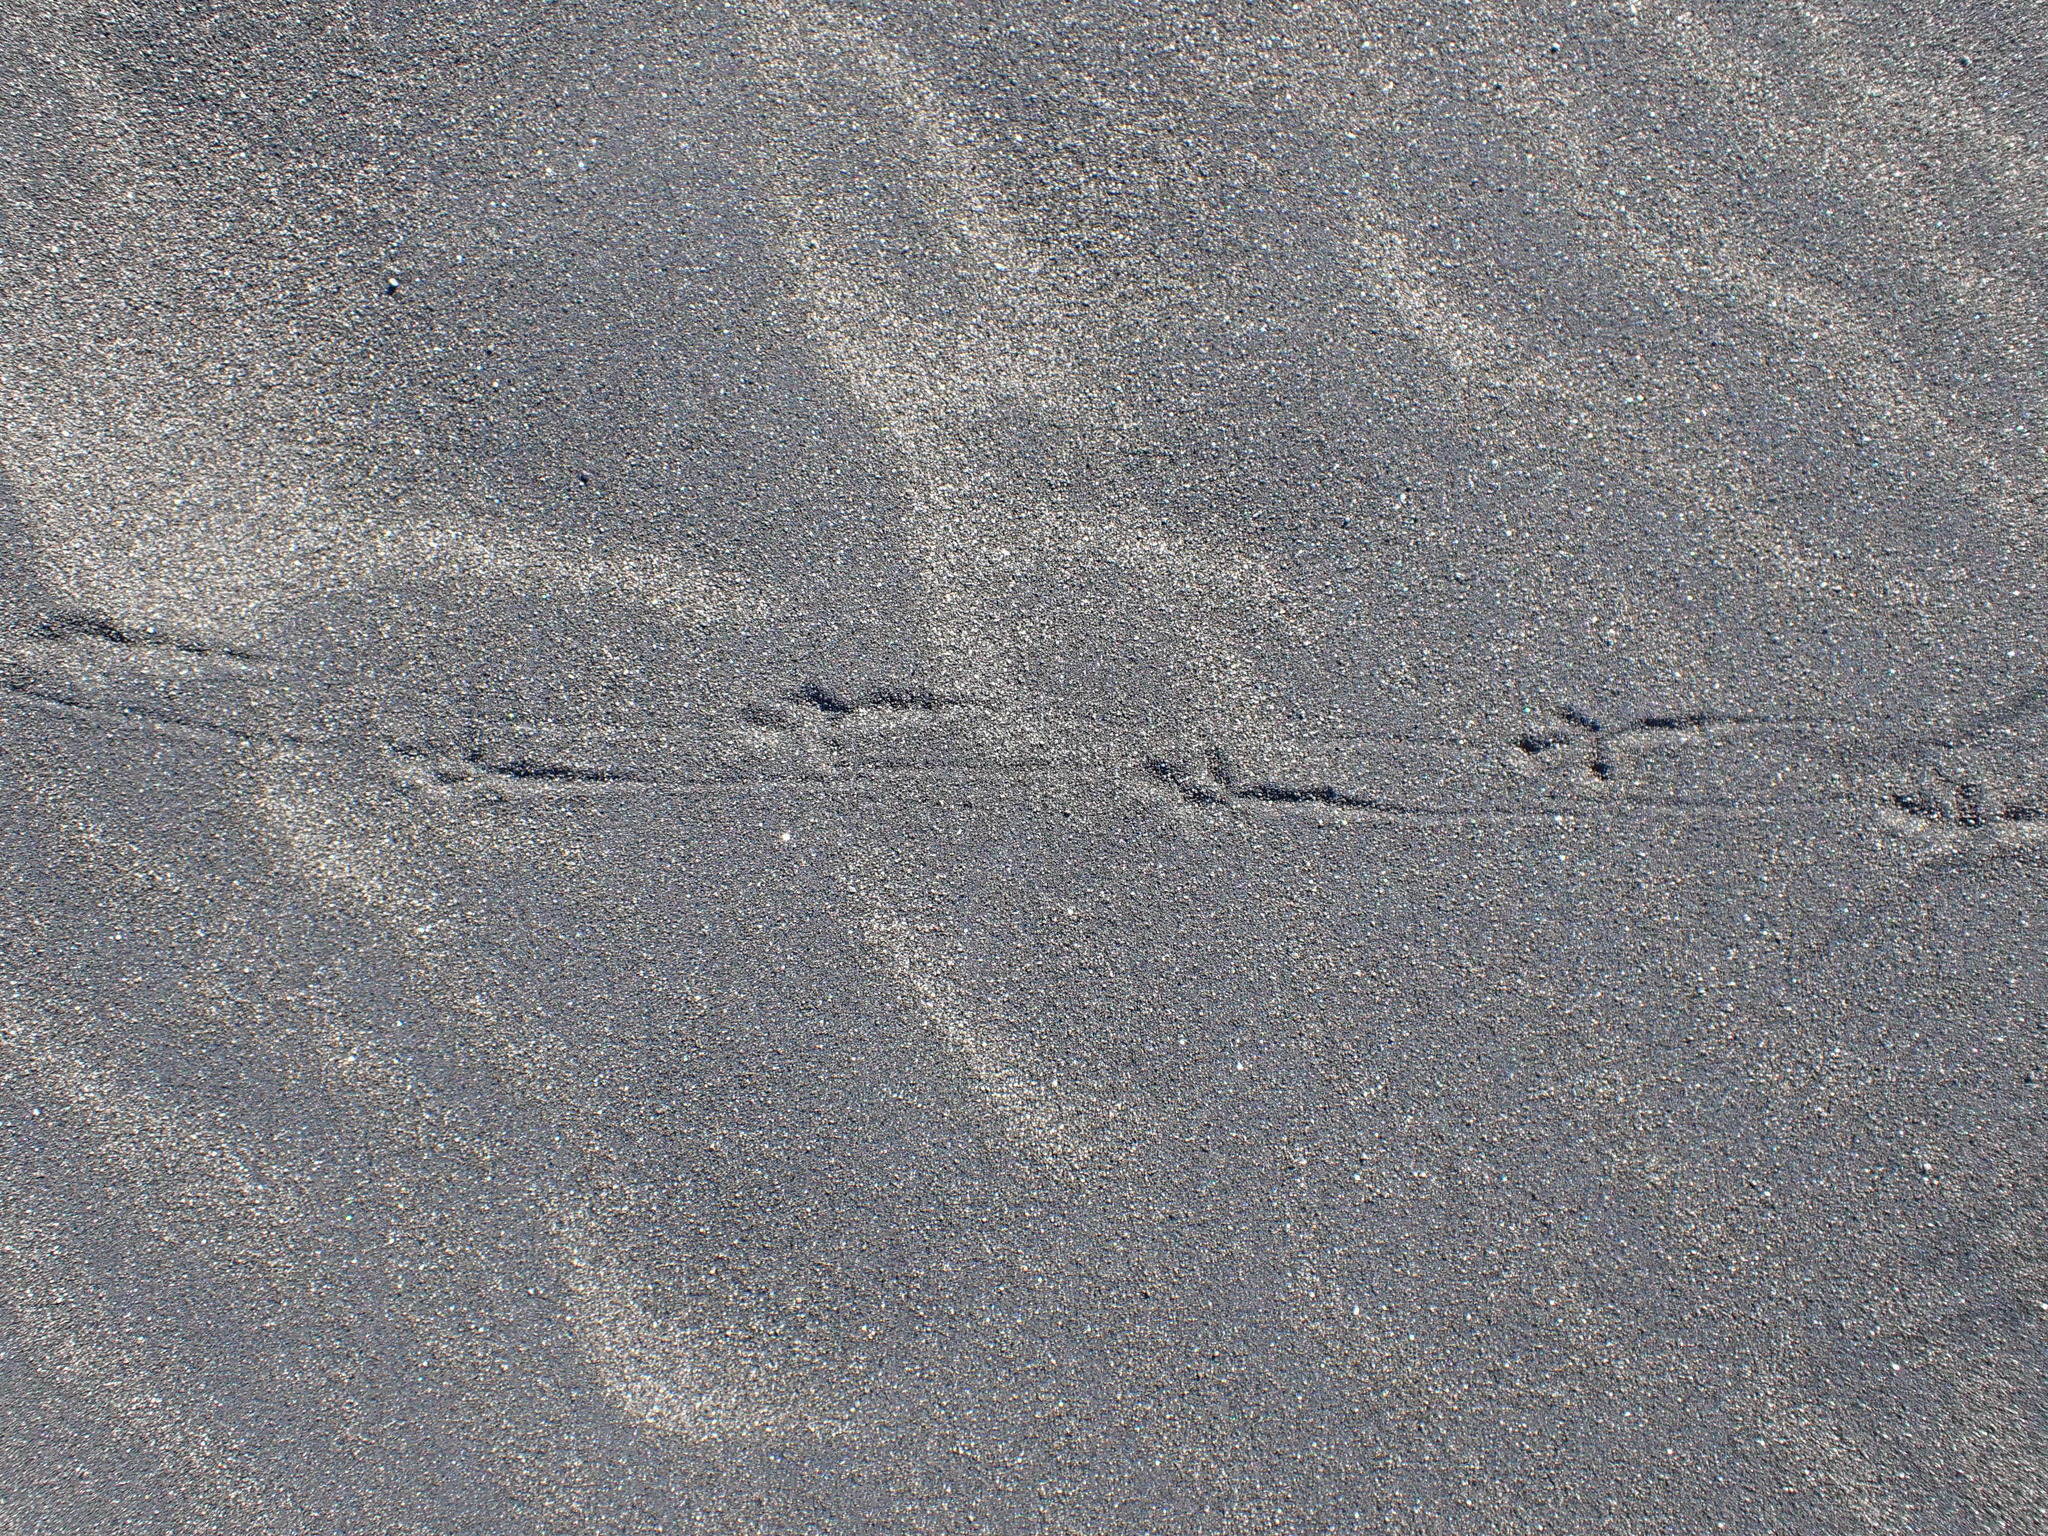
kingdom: Animalia
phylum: Chordata
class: Aves
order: Passeriformes
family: Motacillidae
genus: Anthus
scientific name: Anthus novaeseelandiae
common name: New zealand pipit
